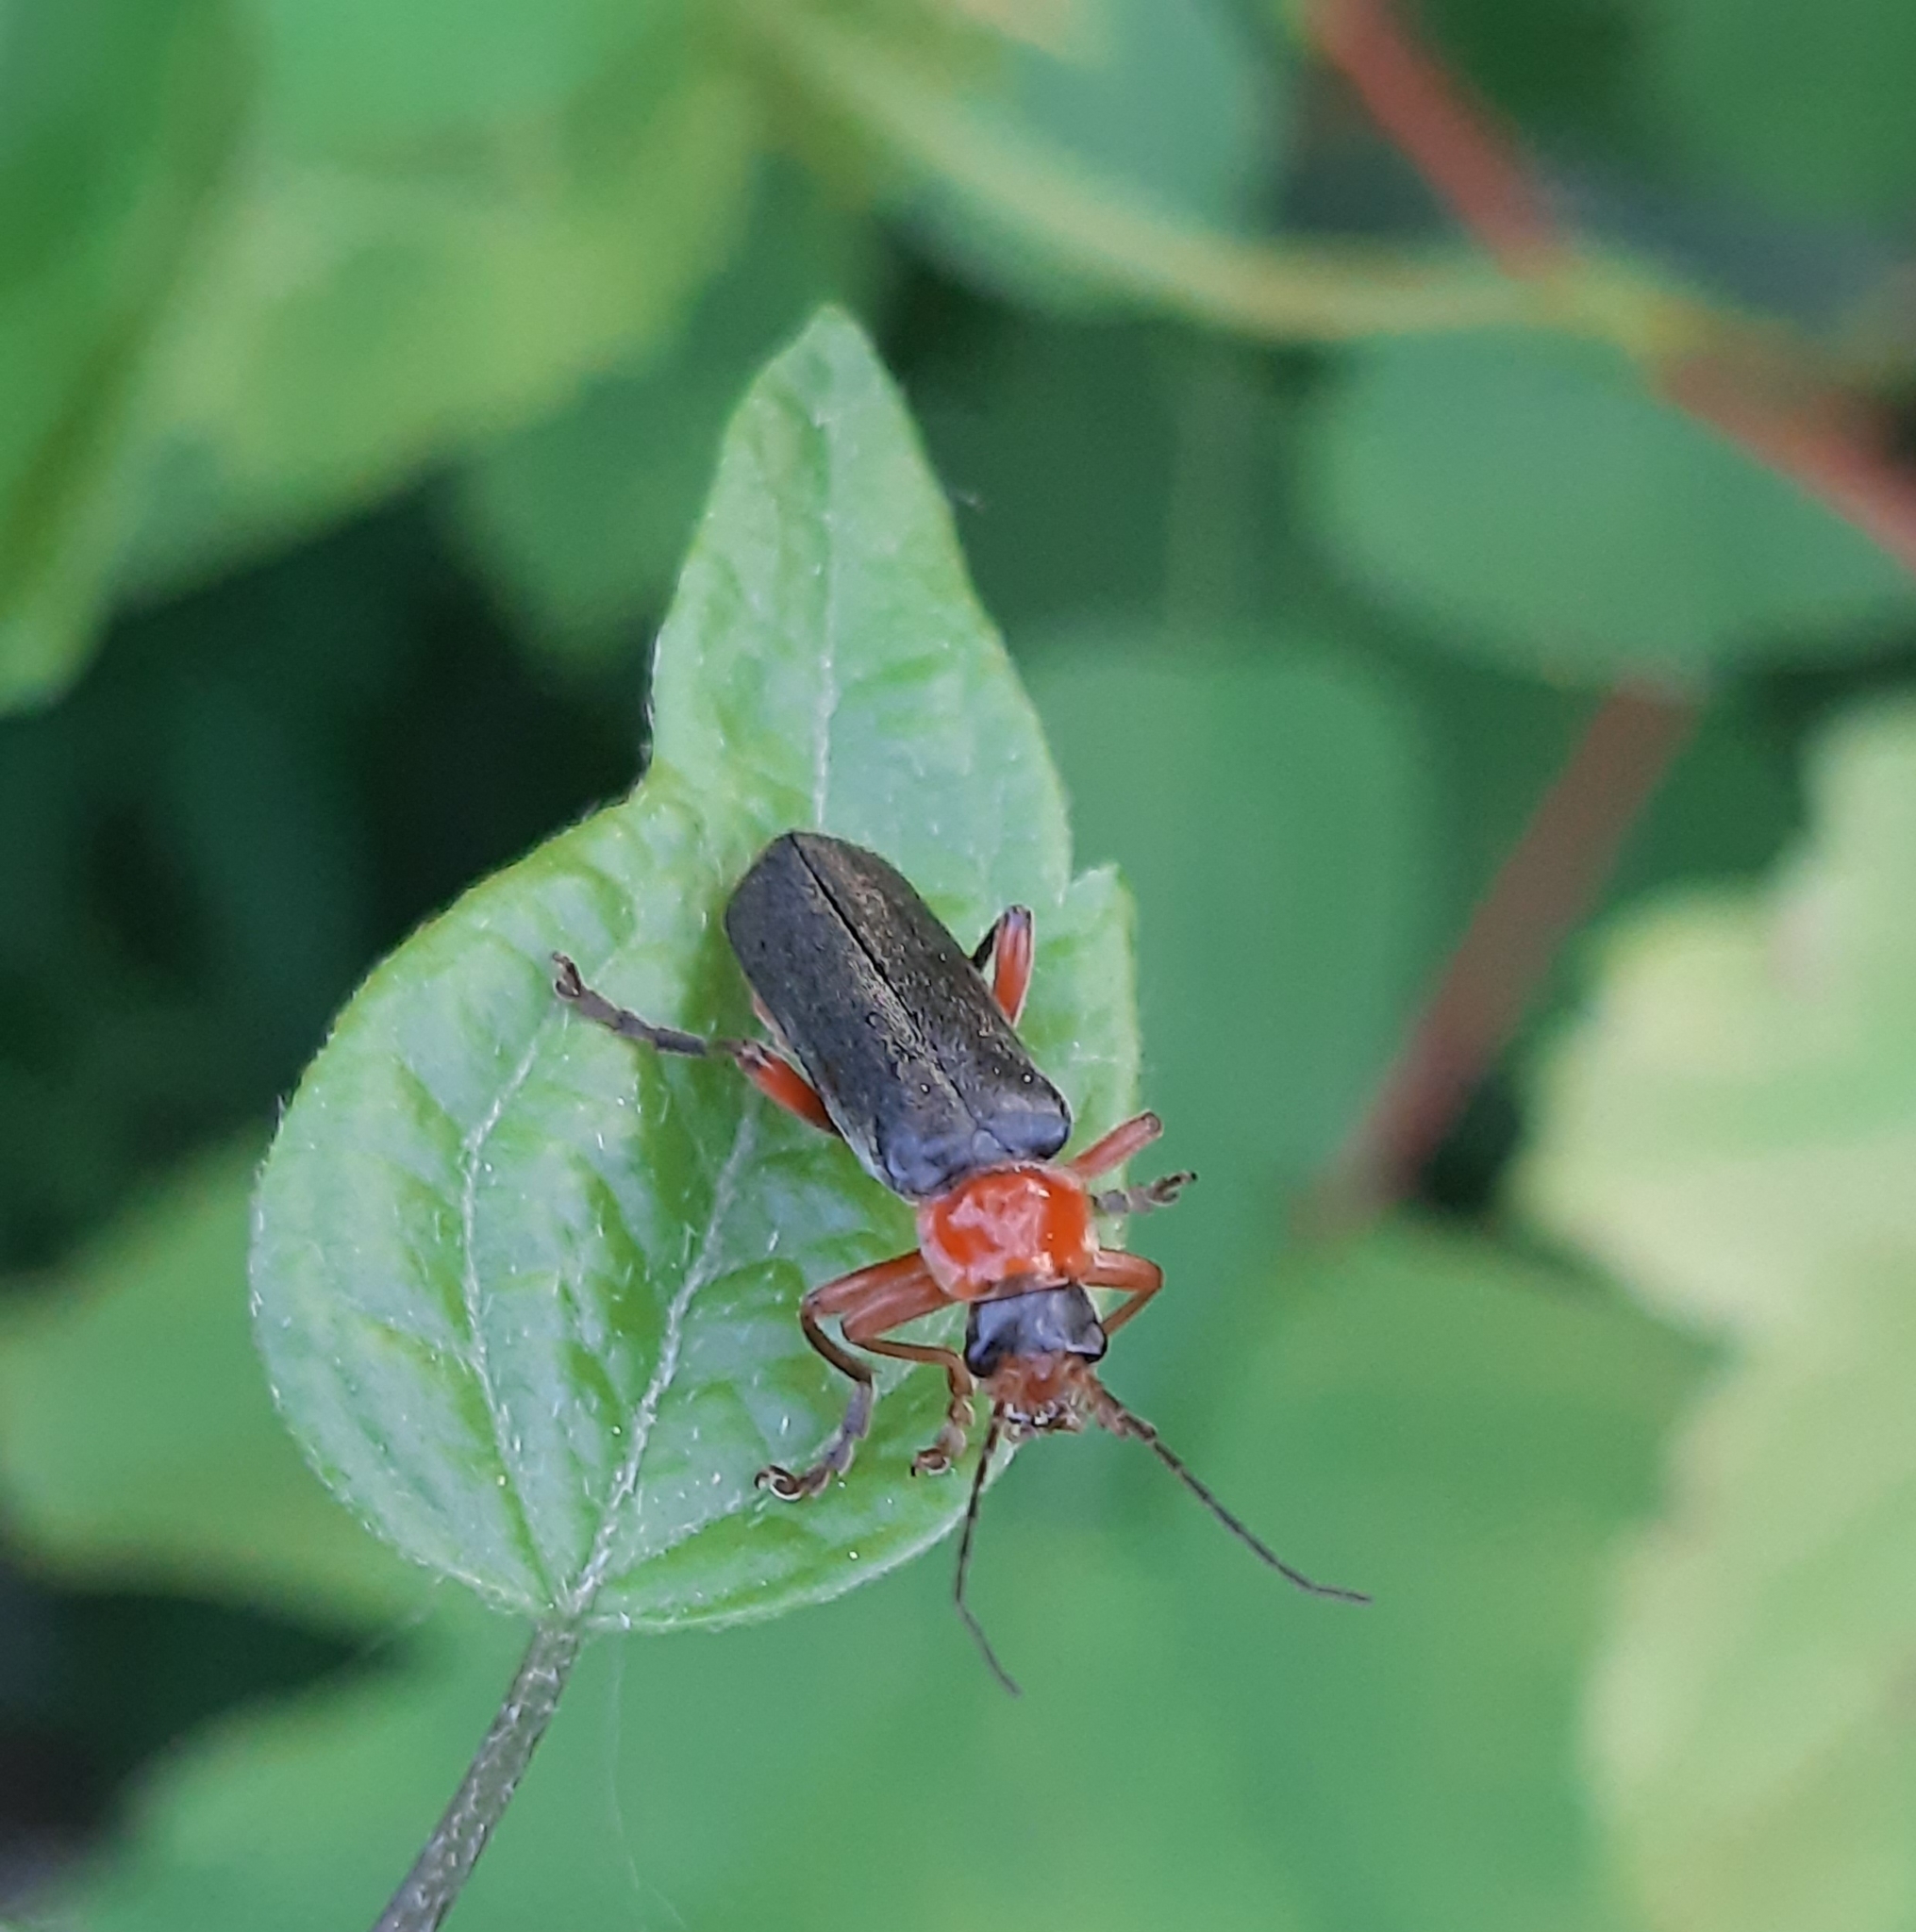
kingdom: Animalia
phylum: Arthropoda
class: Insecta
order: Coleoptera
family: Cantharidae
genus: Cantharis
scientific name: Cantharis pellucida
